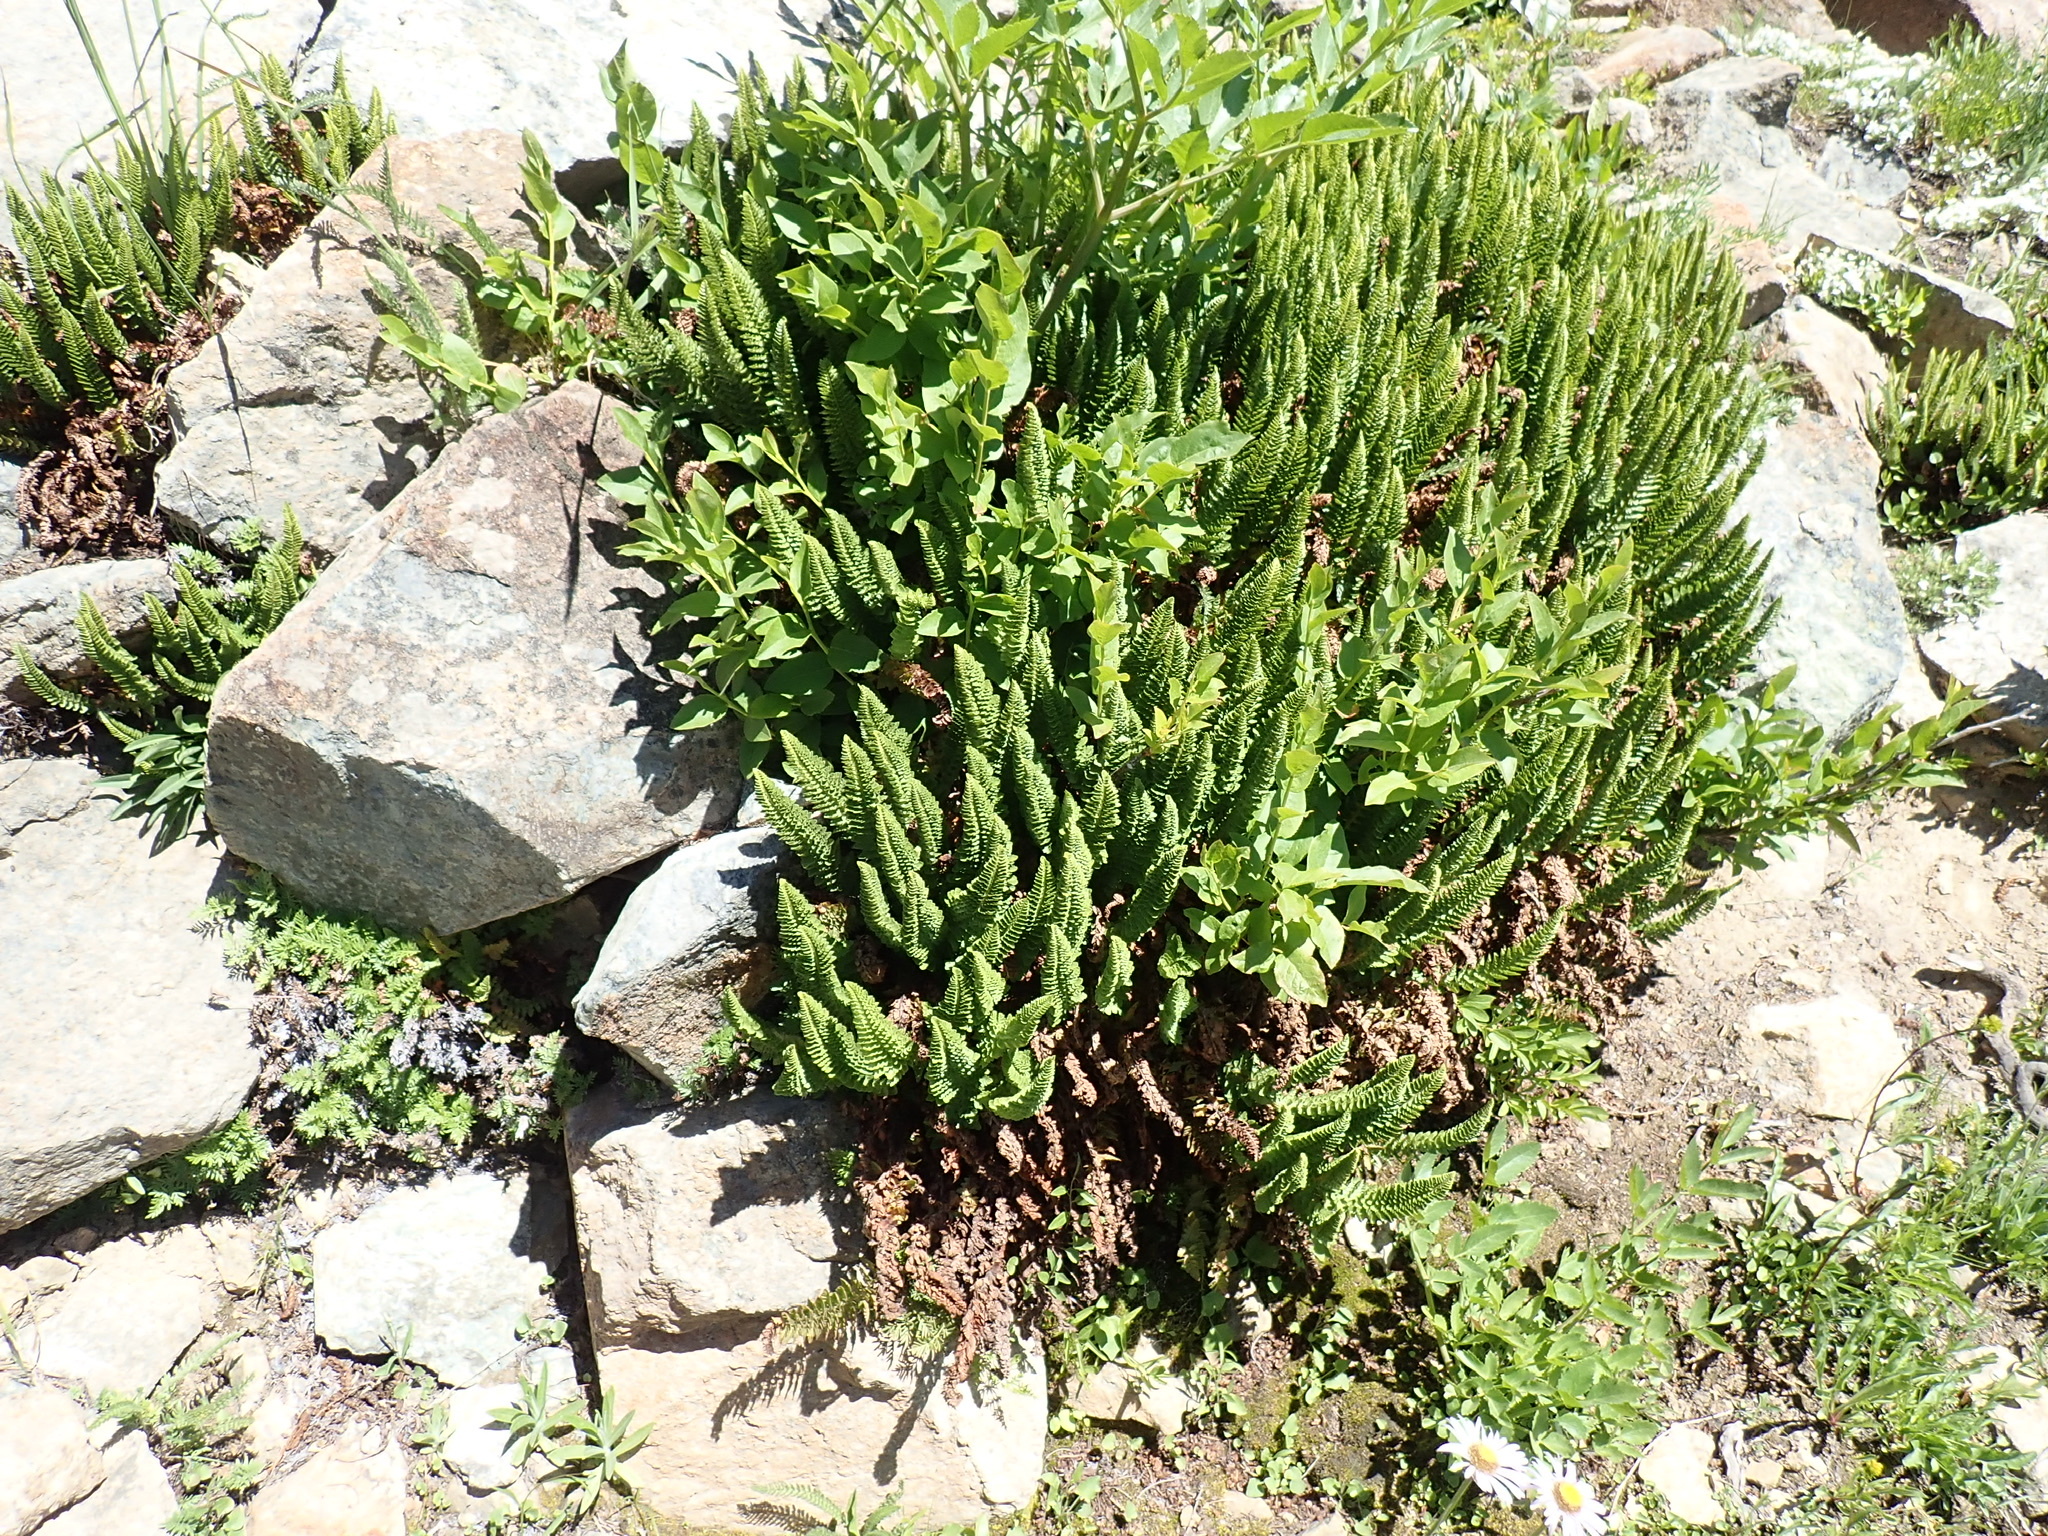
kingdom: Plantae
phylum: Tracheophyta
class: Polypodiopsida
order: Polypodiales
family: Dryopteridaceae
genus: Polystichum
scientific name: Polystichum lemmonii
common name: Lemmon's holly fern
